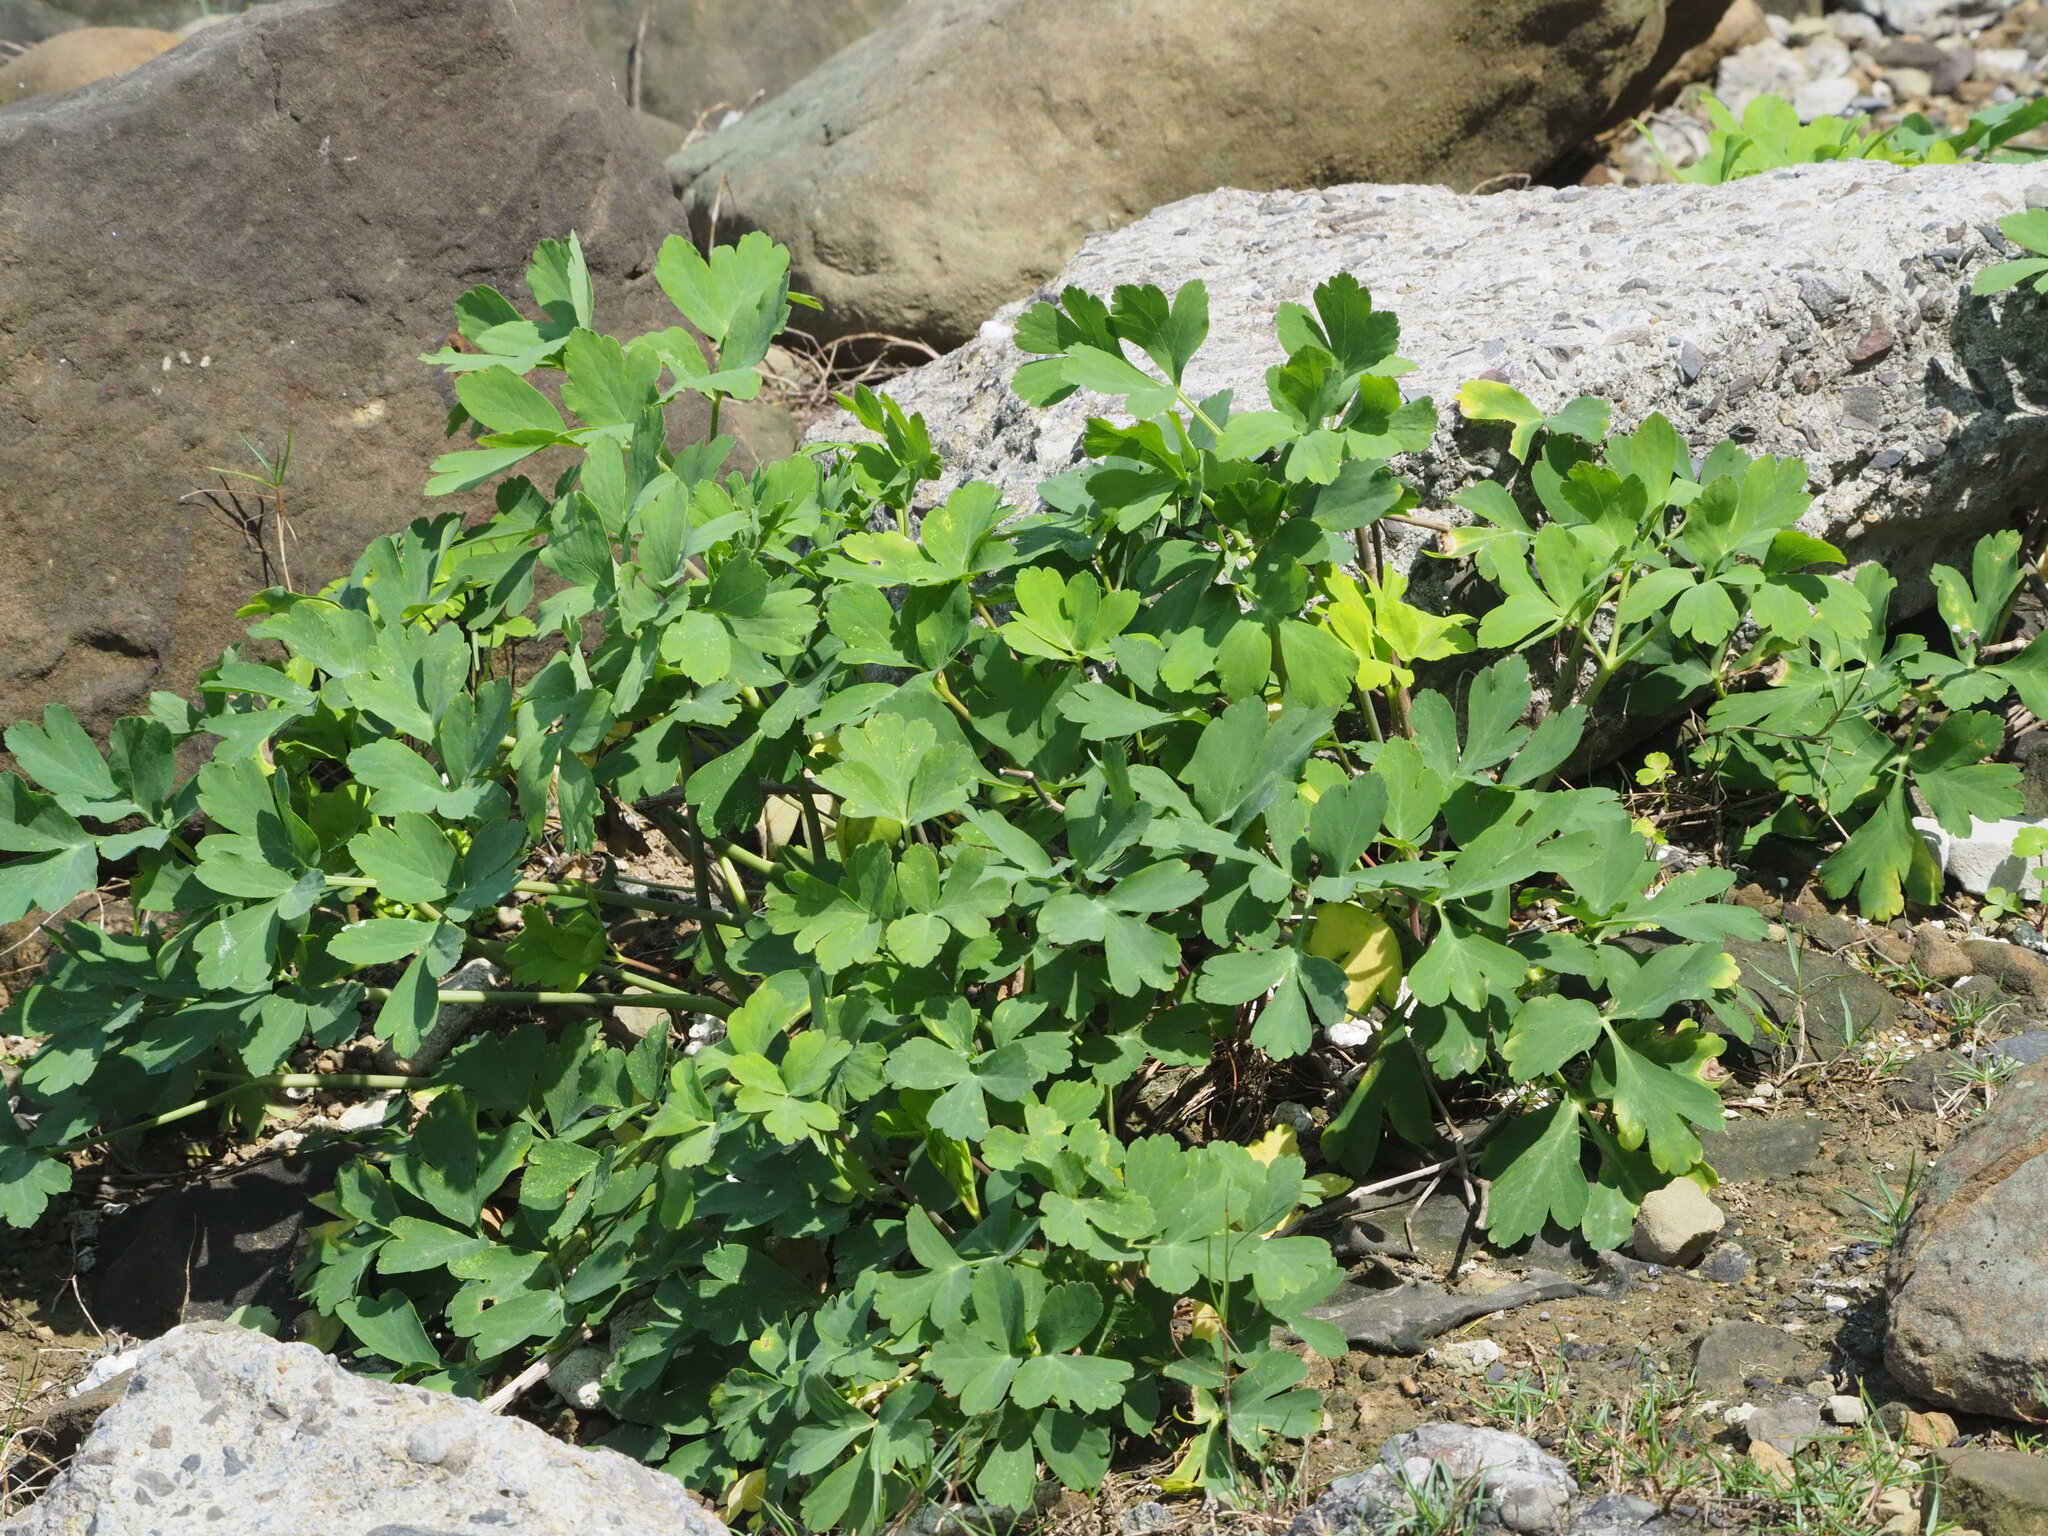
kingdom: Plantae
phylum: Tracheophyta
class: Magnoliopsida
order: Apiales
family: Apiaceae
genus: Peucedanum
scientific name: Peucedanum japonicum
